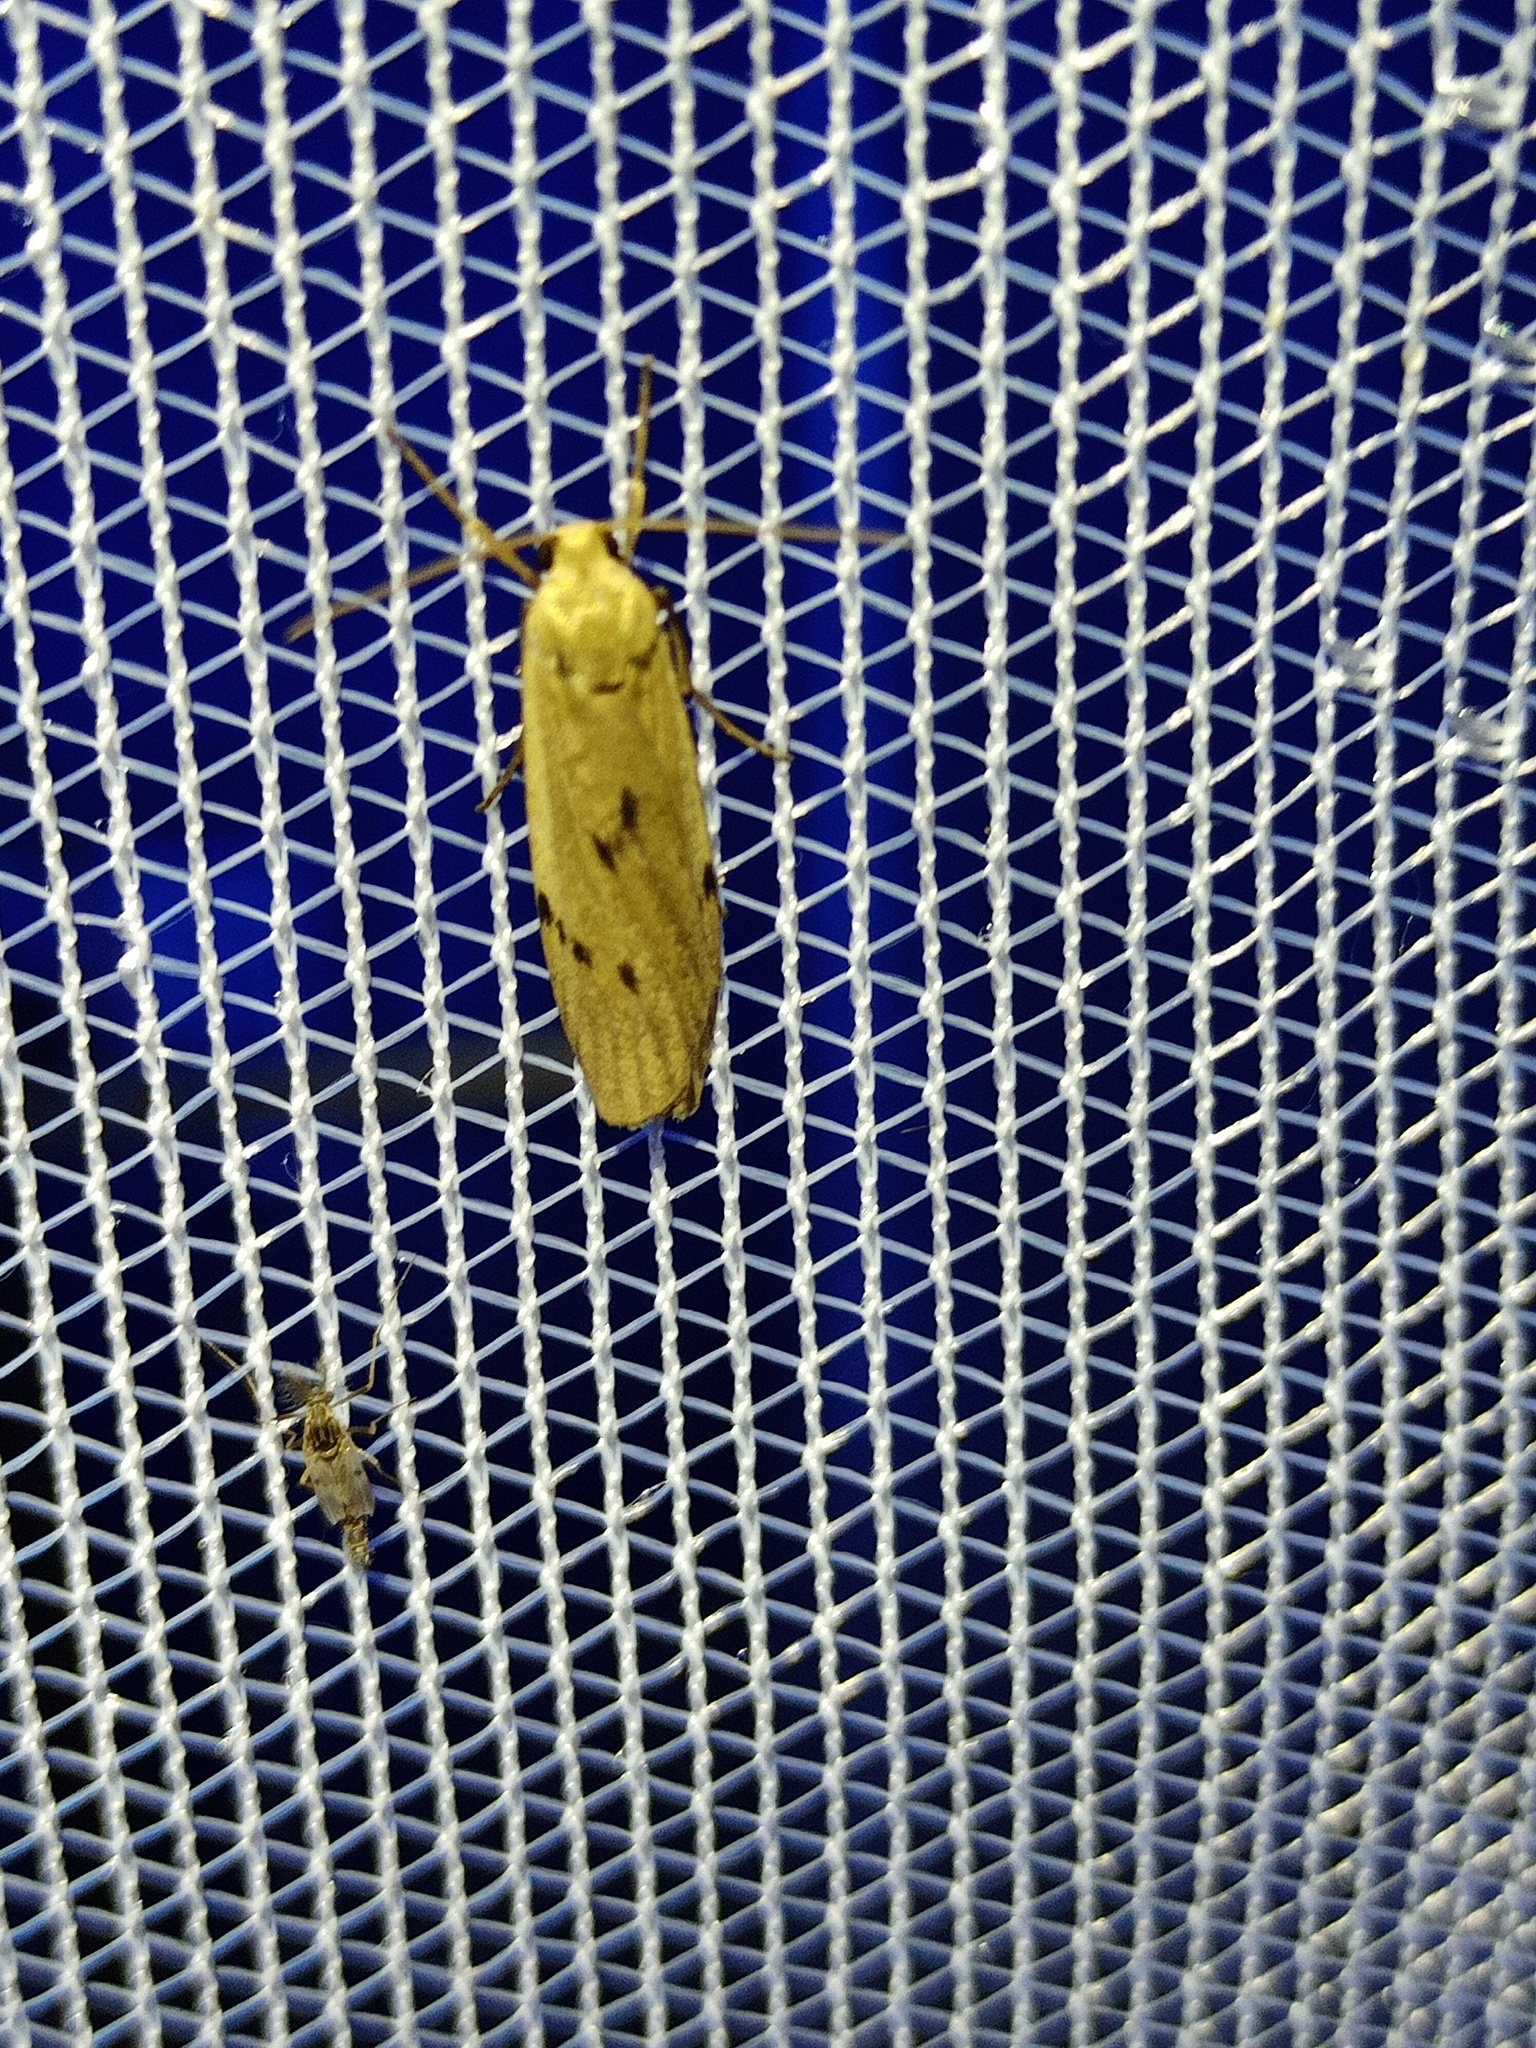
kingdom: Animalia
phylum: Arthropoda
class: Insecta
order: Lepidoptera
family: Erebidae
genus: Pelosia
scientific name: Pelosia muscerda
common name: Dotted footman
